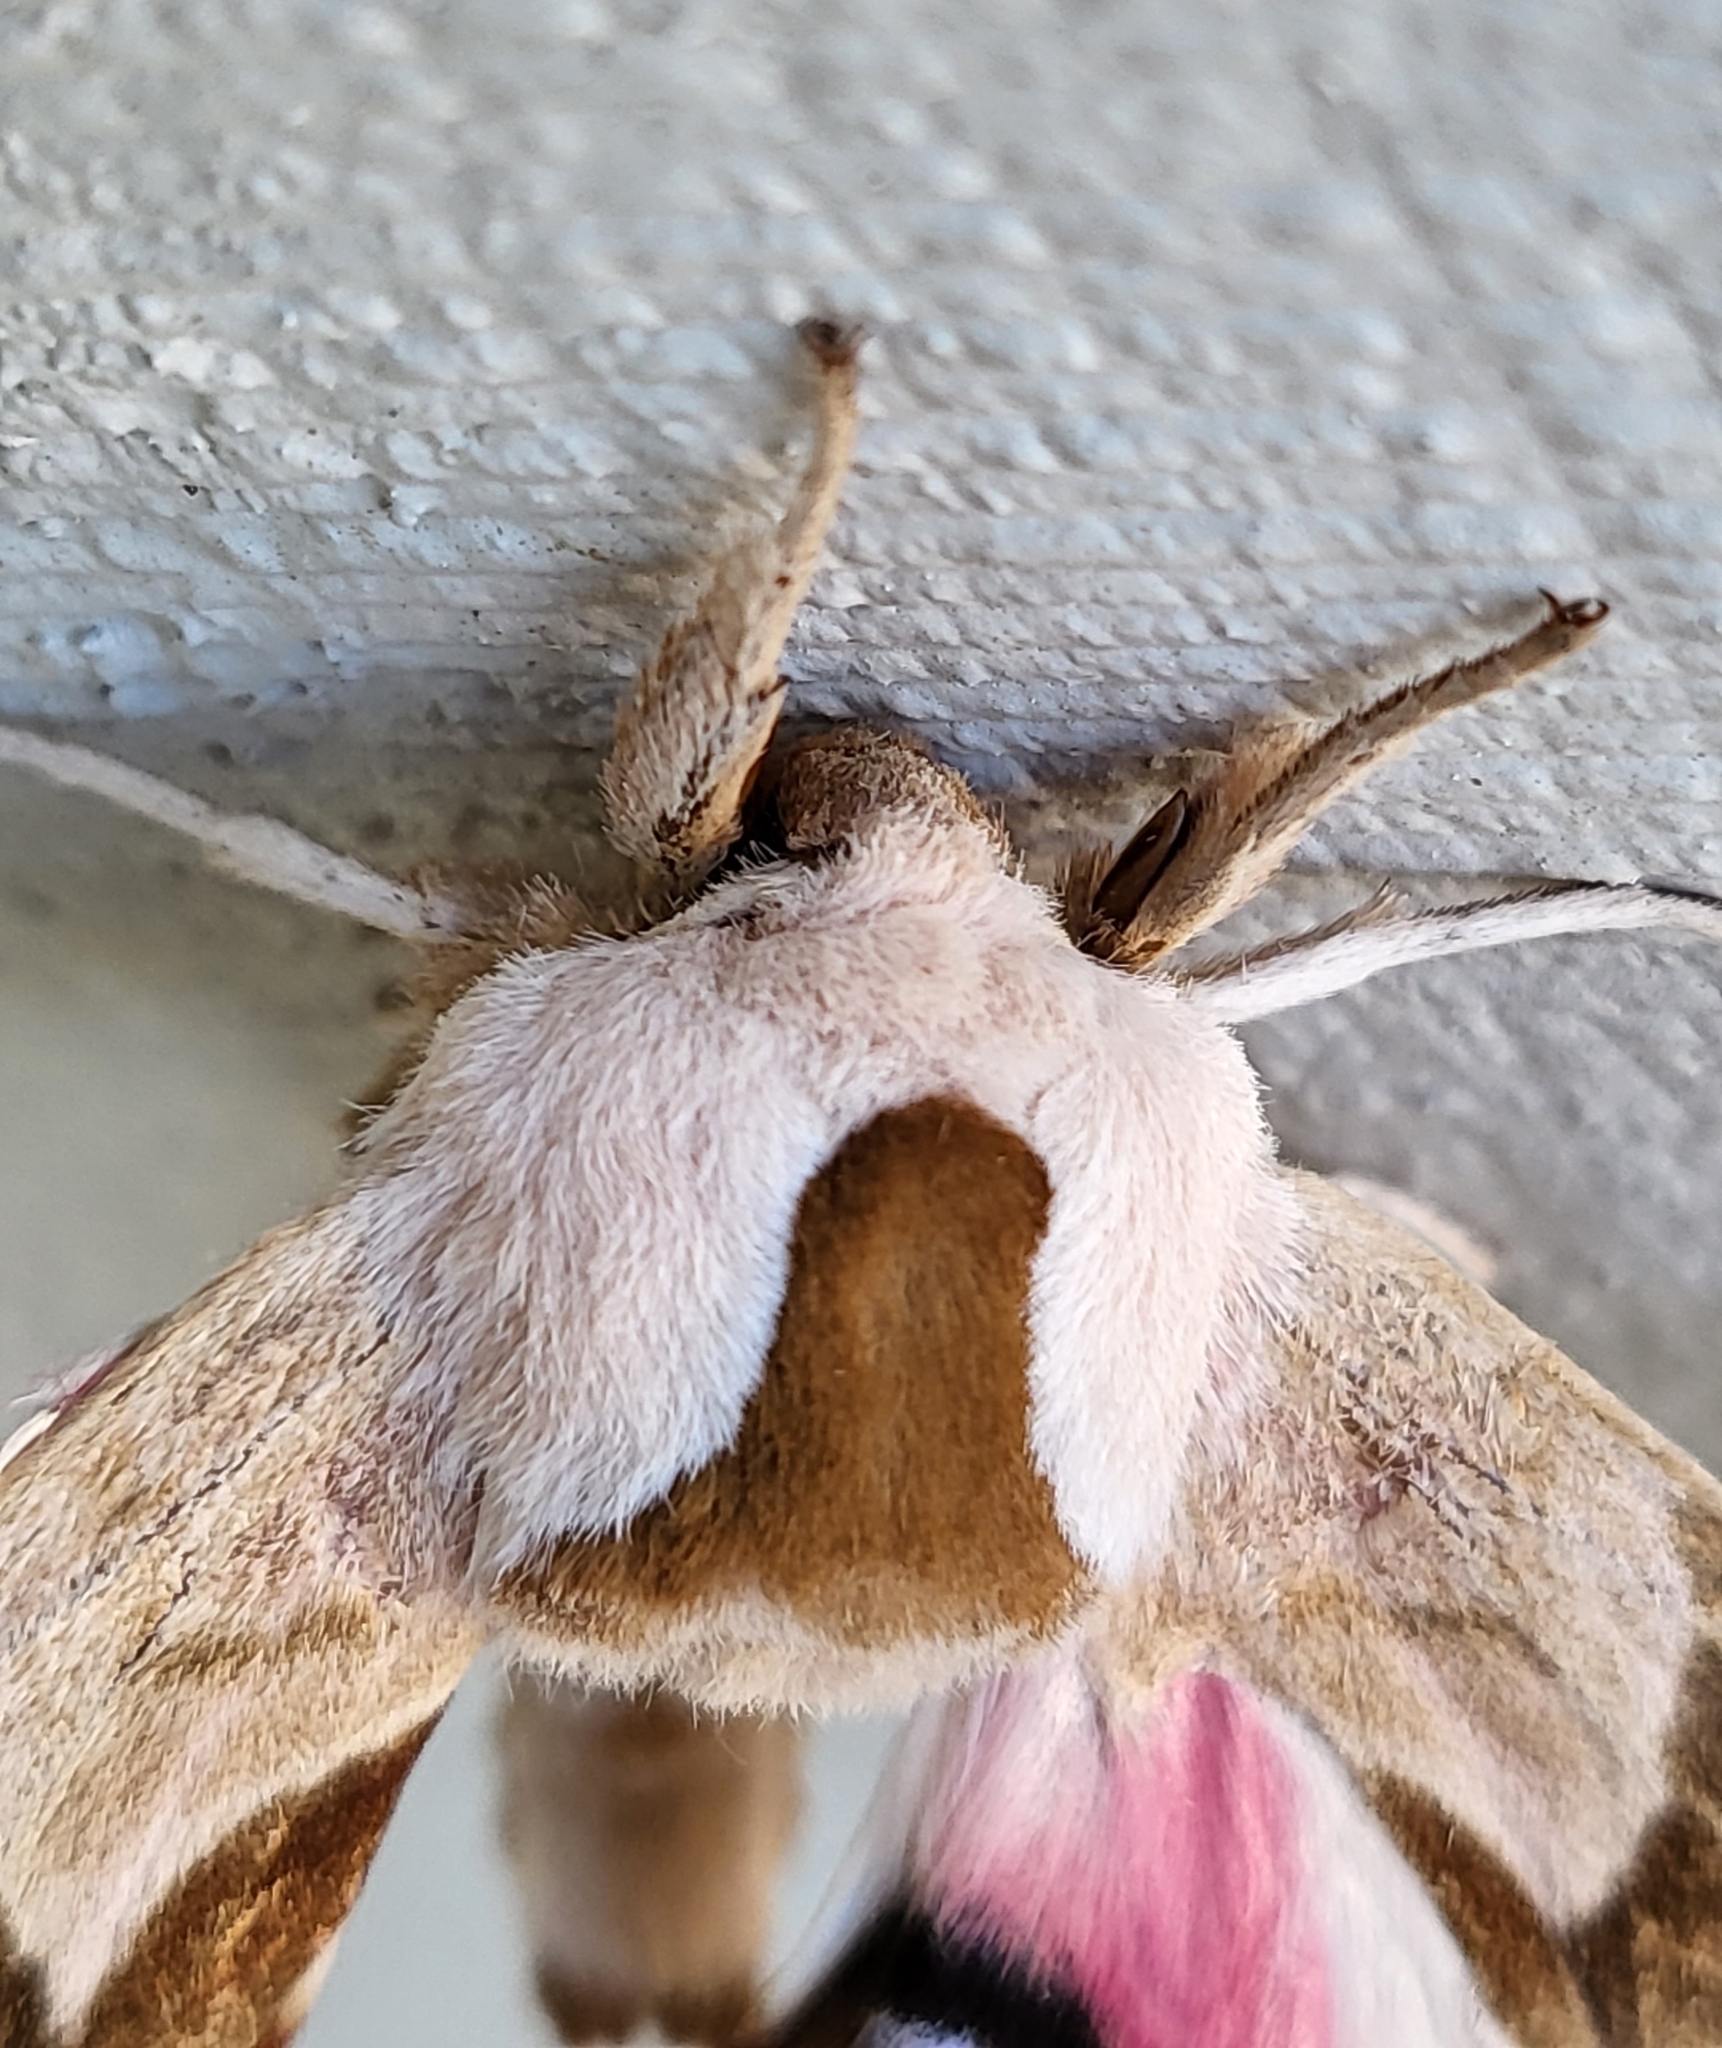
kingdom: Animalia
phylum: Arthropoda
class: Insecta
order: Lepidoptera
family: Sphingidae
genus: Smerinthus
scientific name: Smerinthus cerisyi
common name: Cerisy's sphinx moth
